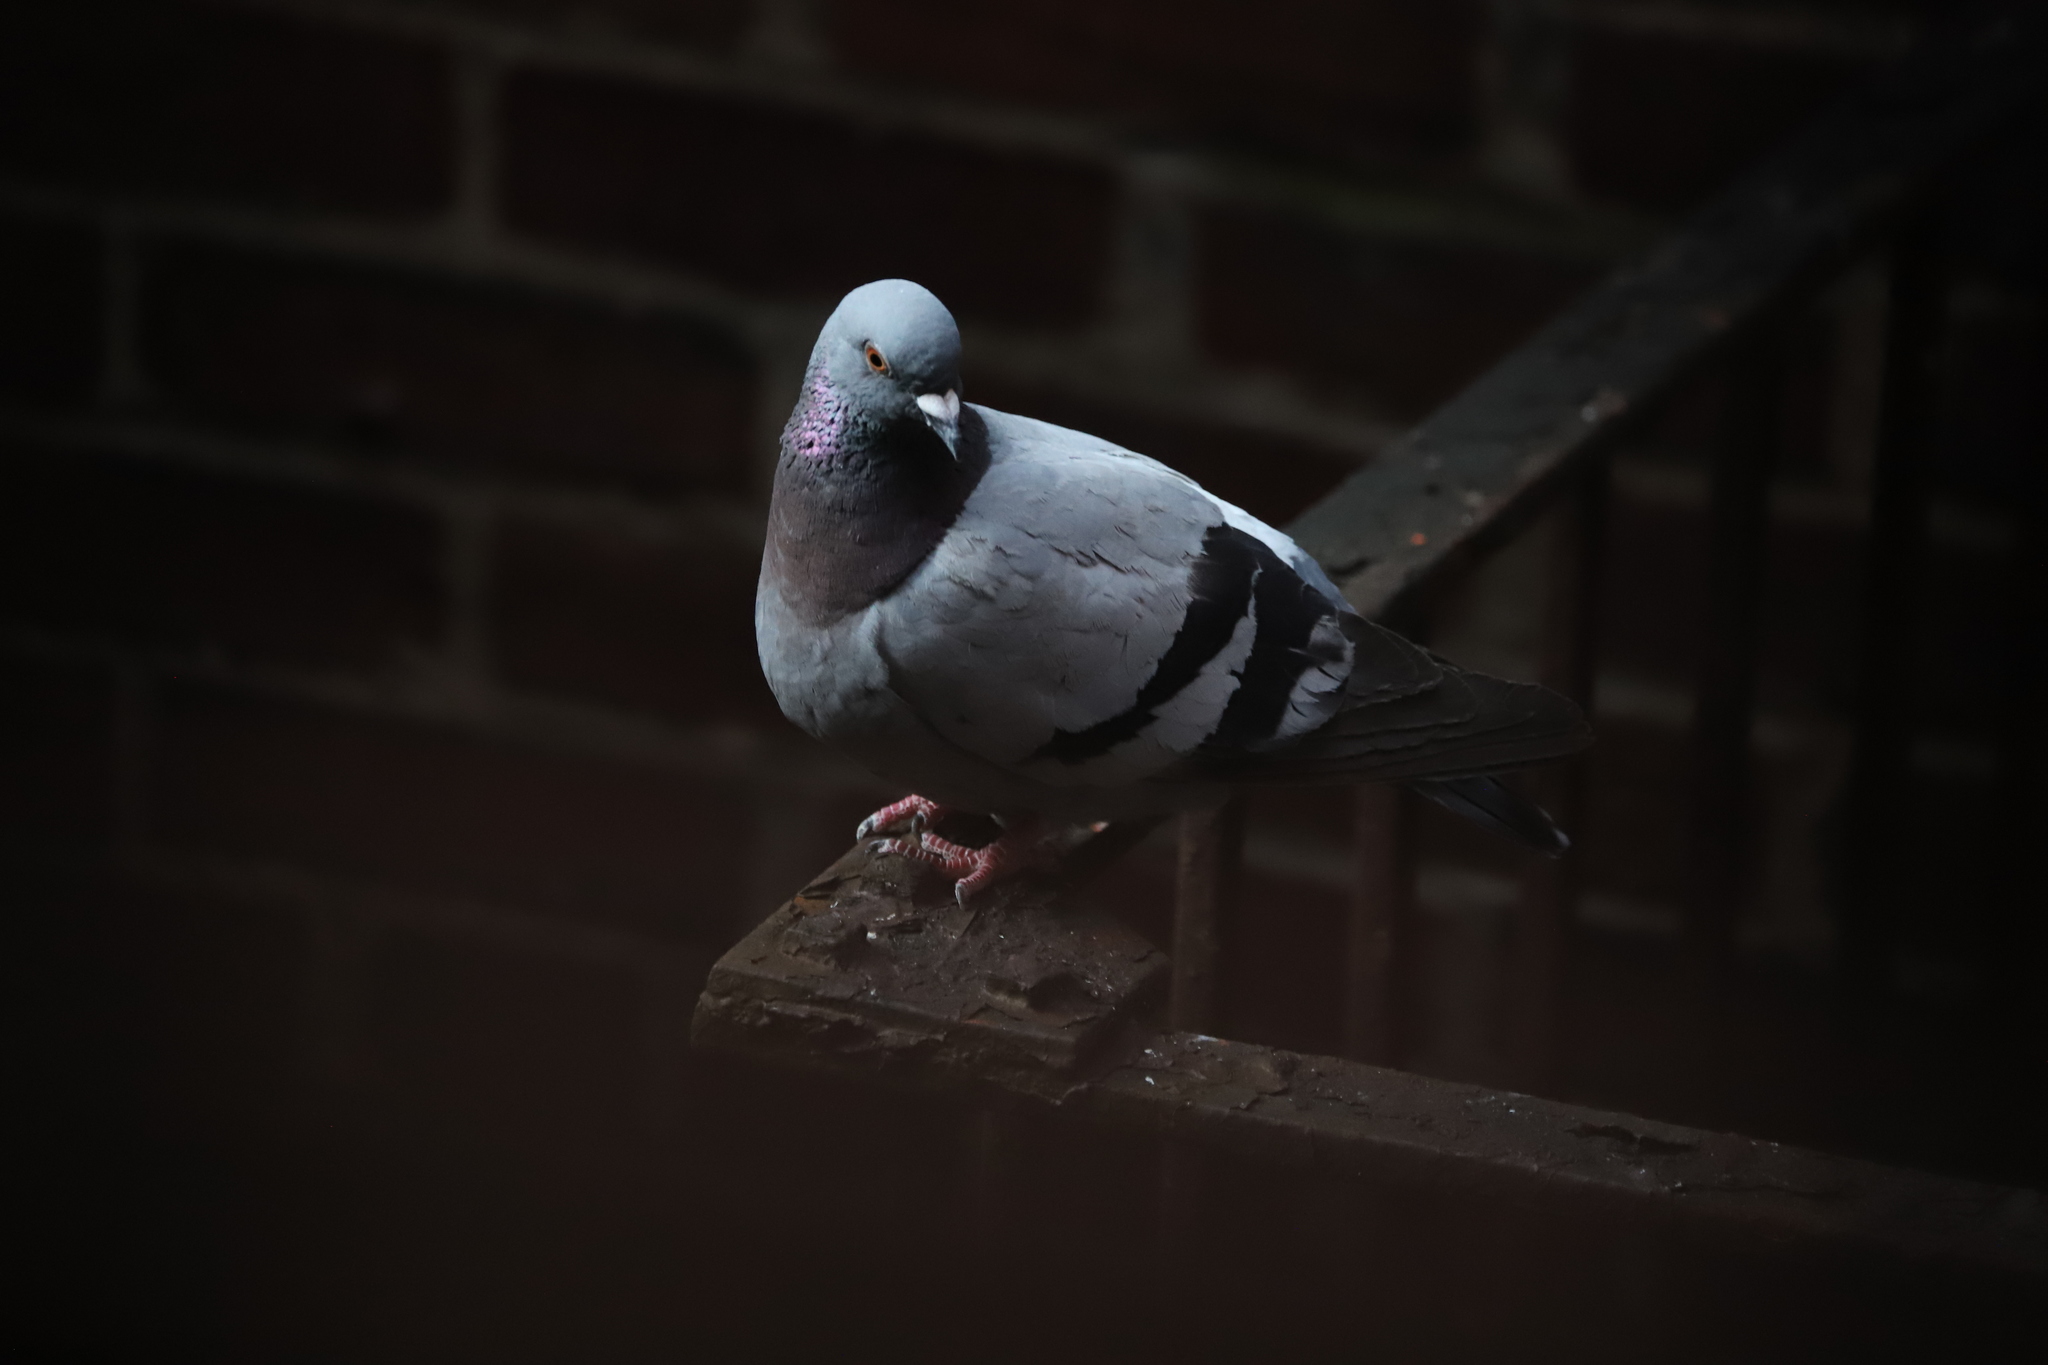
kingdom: Animalia
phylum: Chordata
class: Aves
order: Columbiformes
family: Columbidae
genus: Columba
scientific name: Columba livia
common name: Rock pigeon
